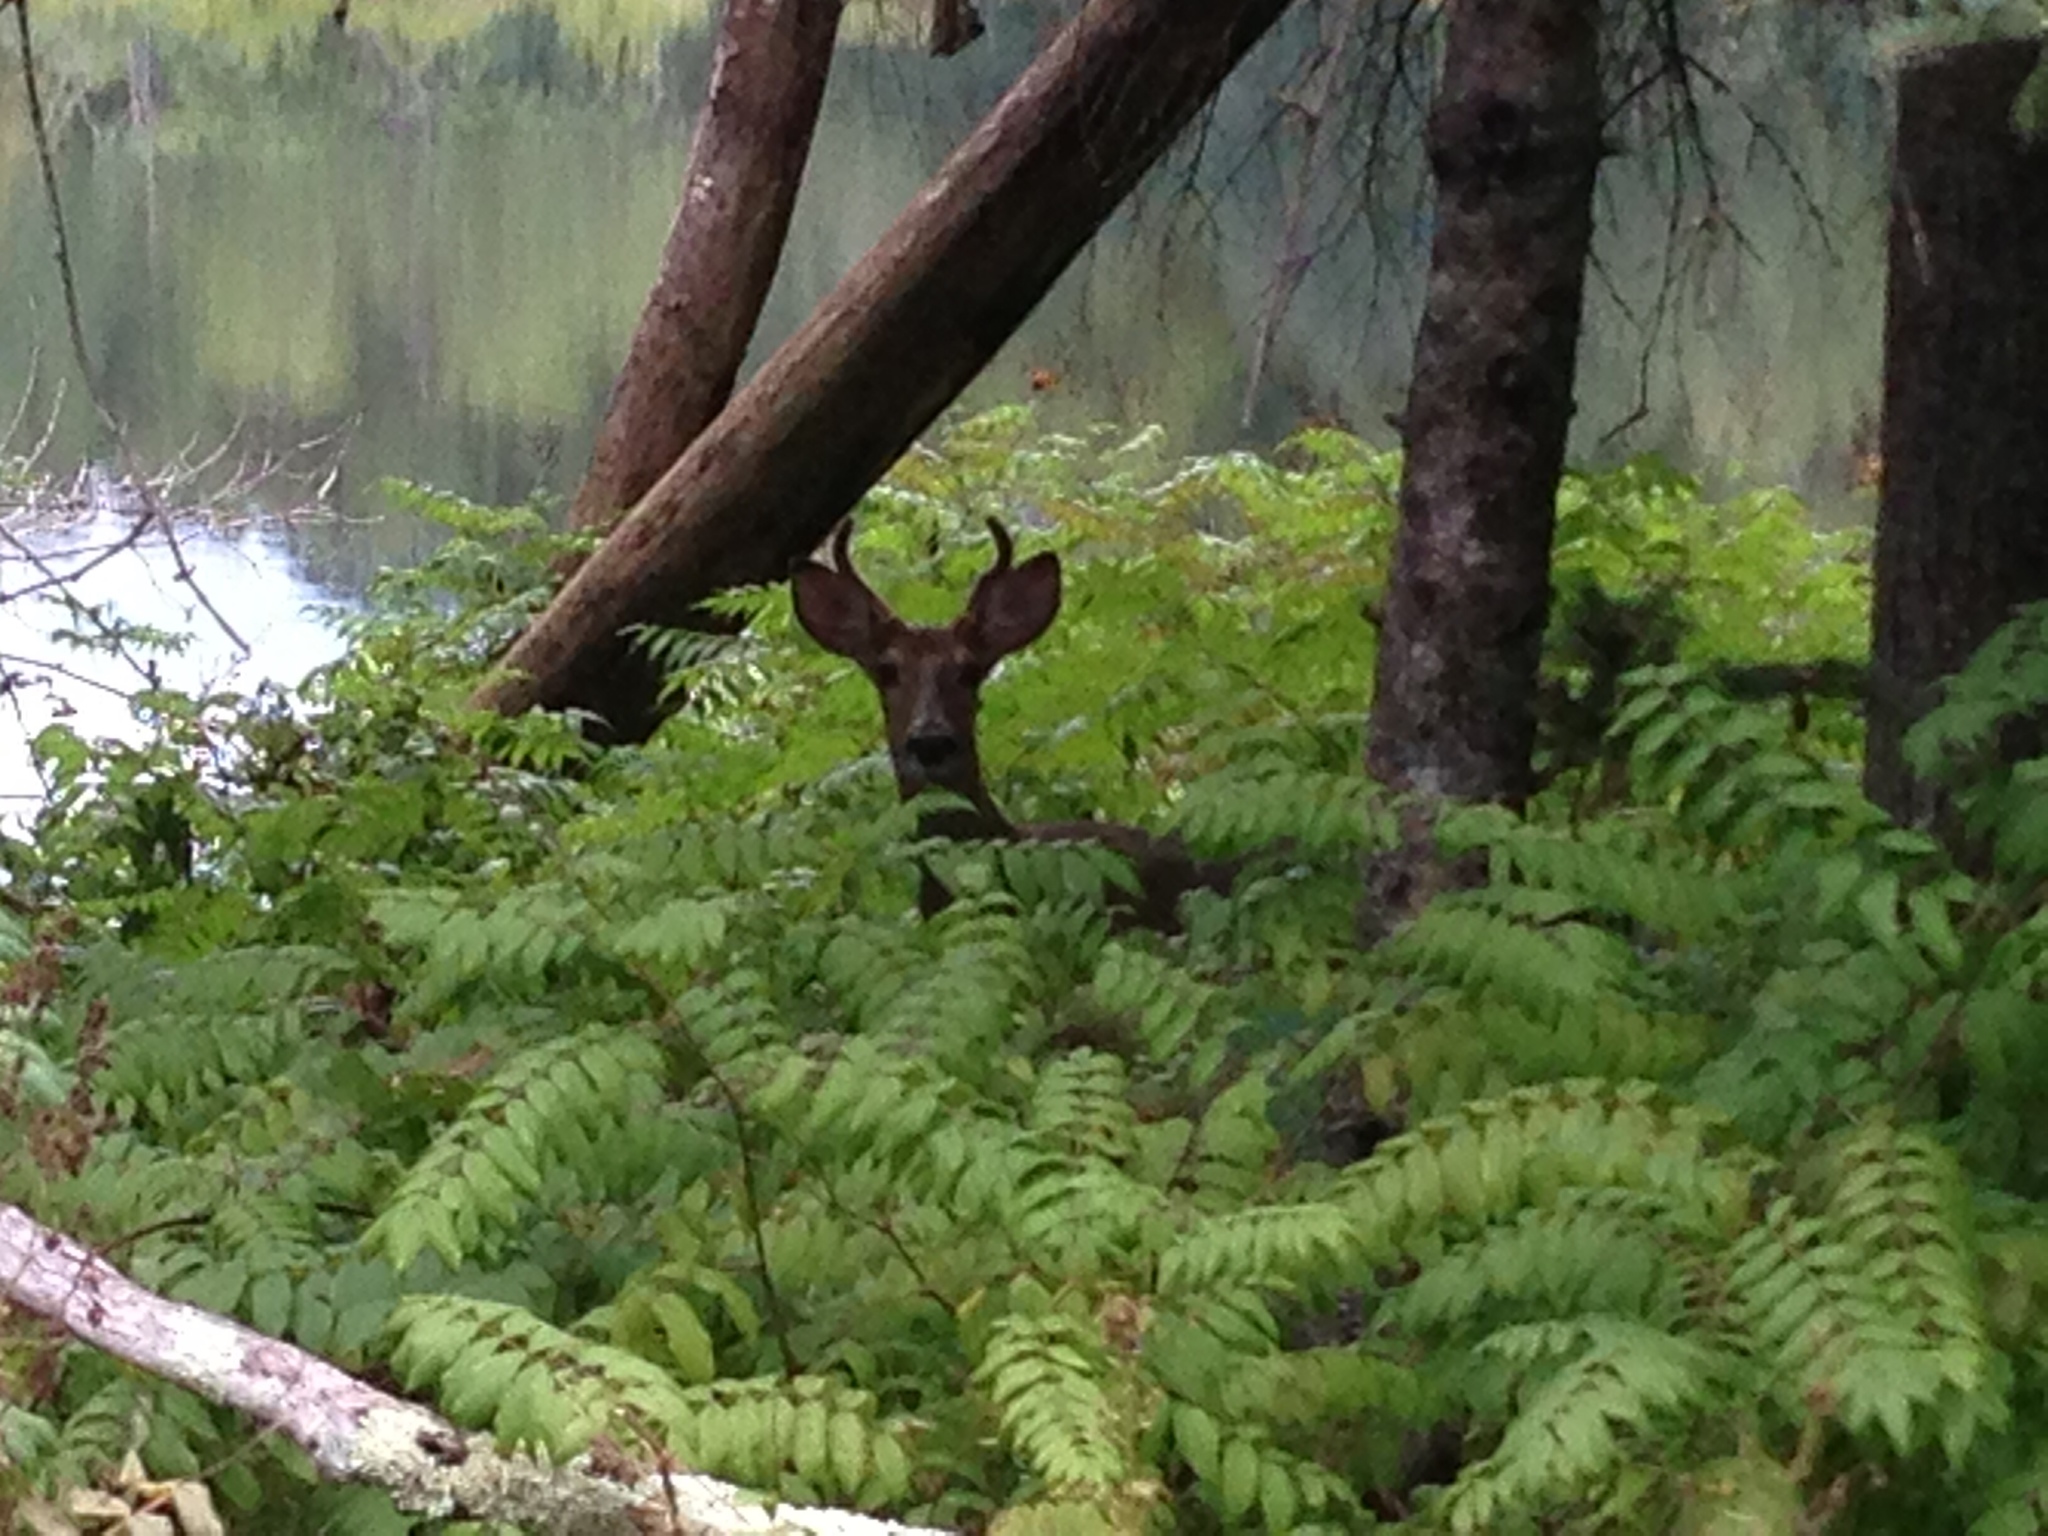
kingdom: Animalia
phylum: Chordata
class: Mammalia
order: Artiodactyla
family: Cervidae
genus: Odocoileus
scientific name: Odocoileus virginianus
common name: White-tailed deer
